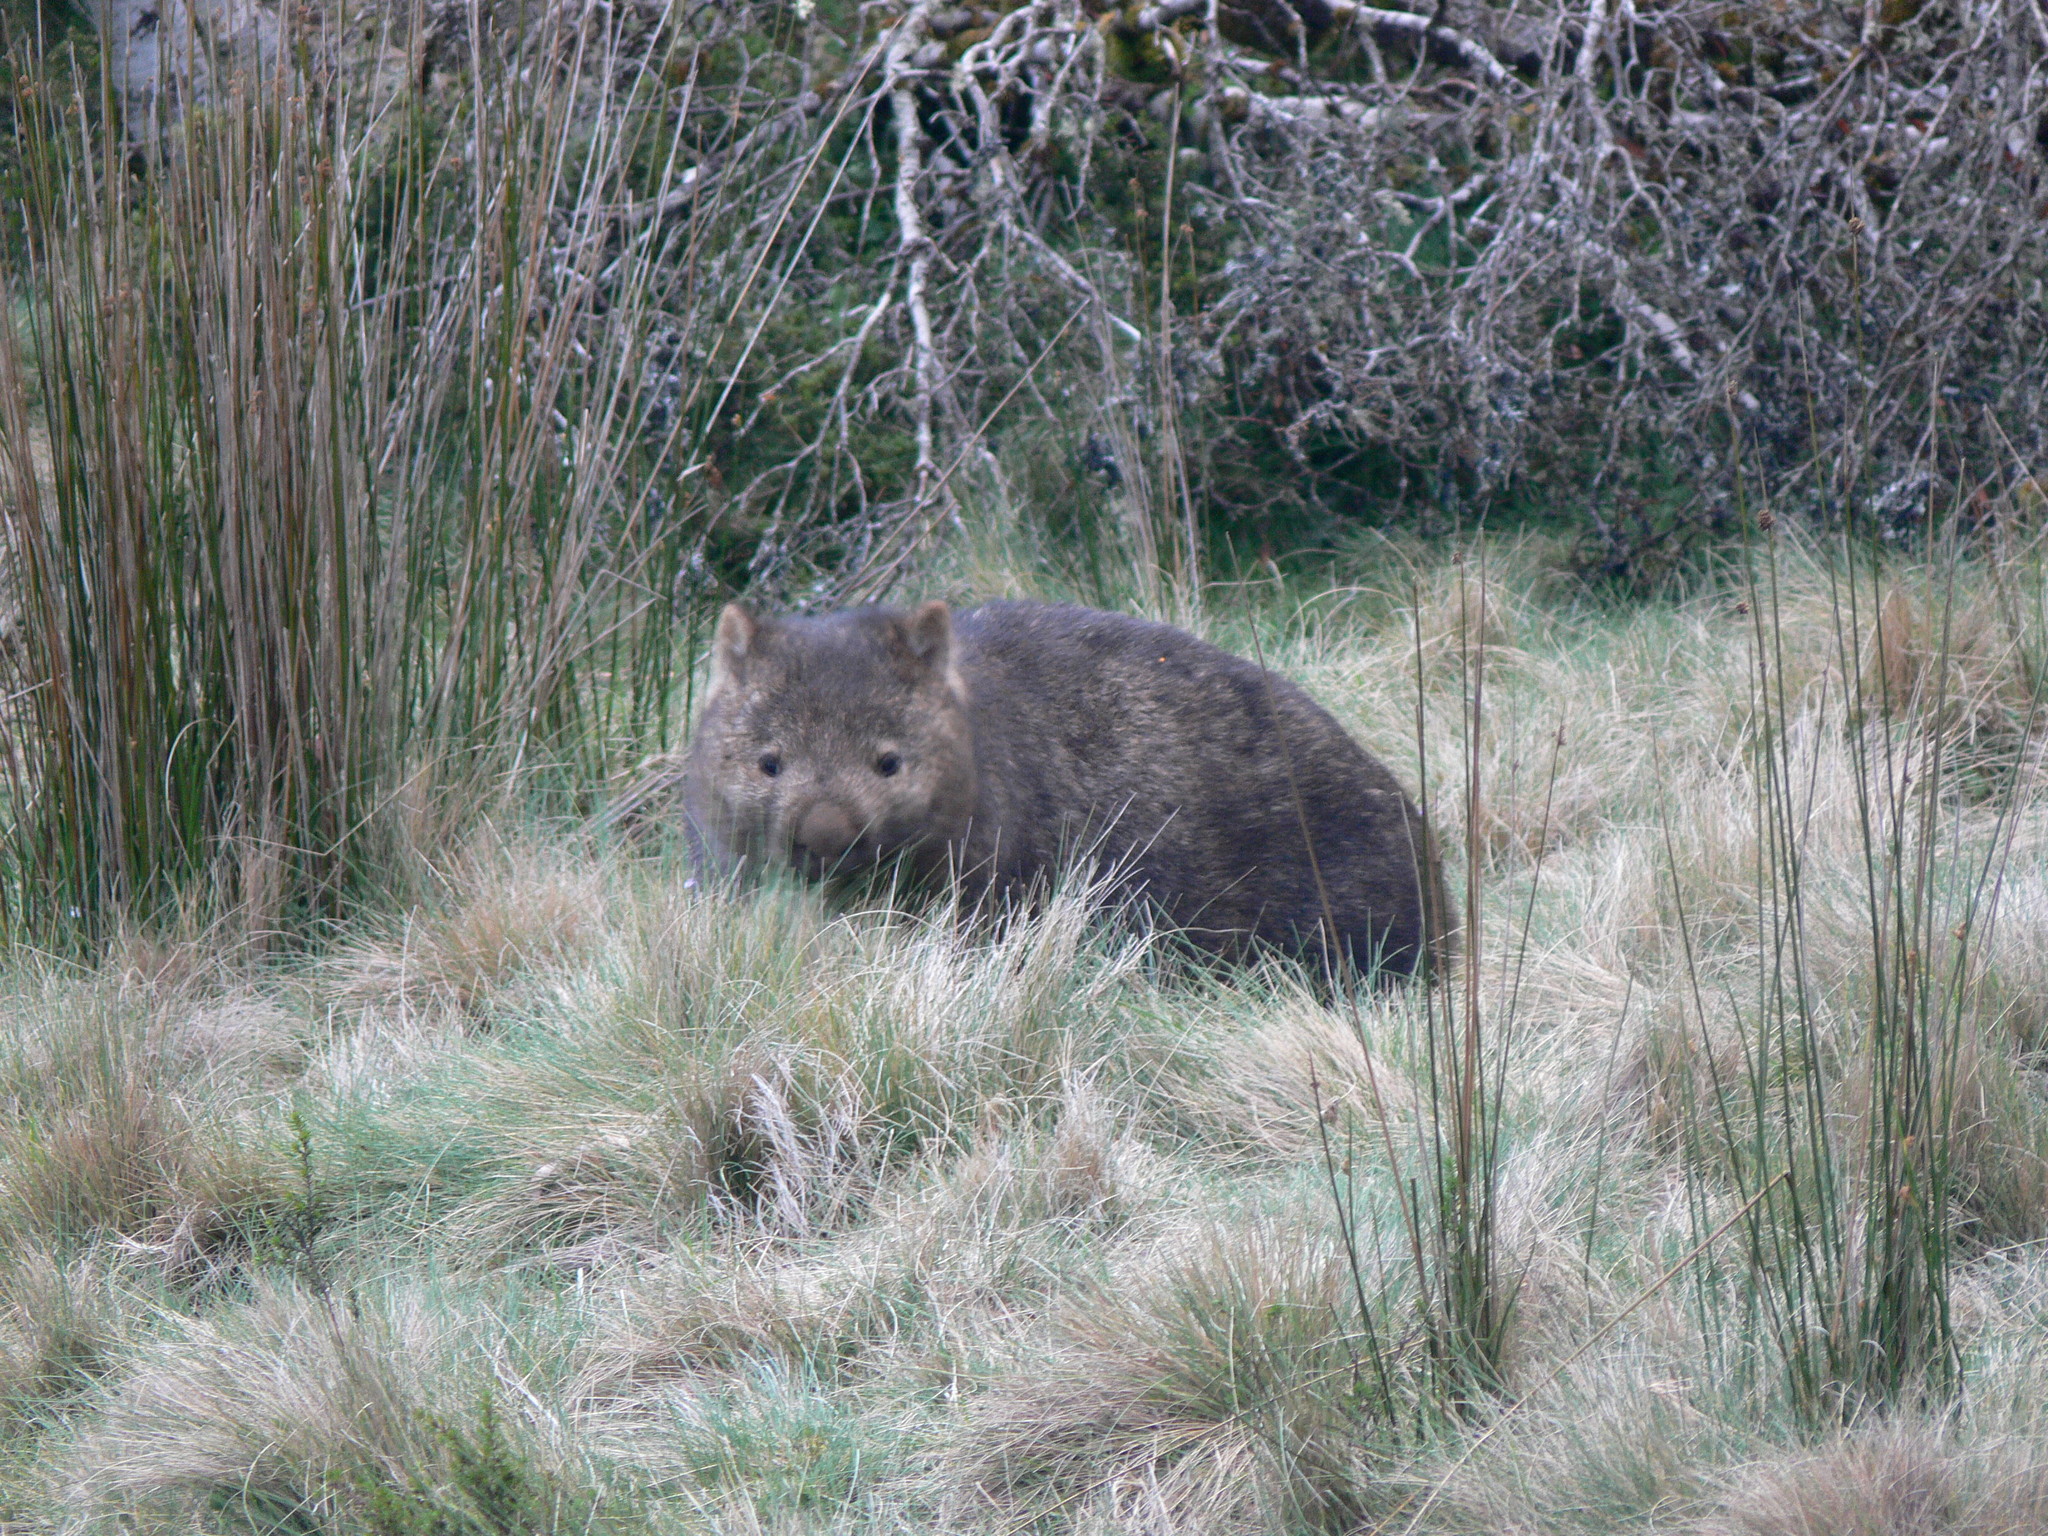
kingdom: Animalia
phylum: Chordata
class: Mammalia
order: Diprotodontia
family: Vombatidae
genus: Vombatus
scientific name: Vombatus ursinus
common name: Common wombat
